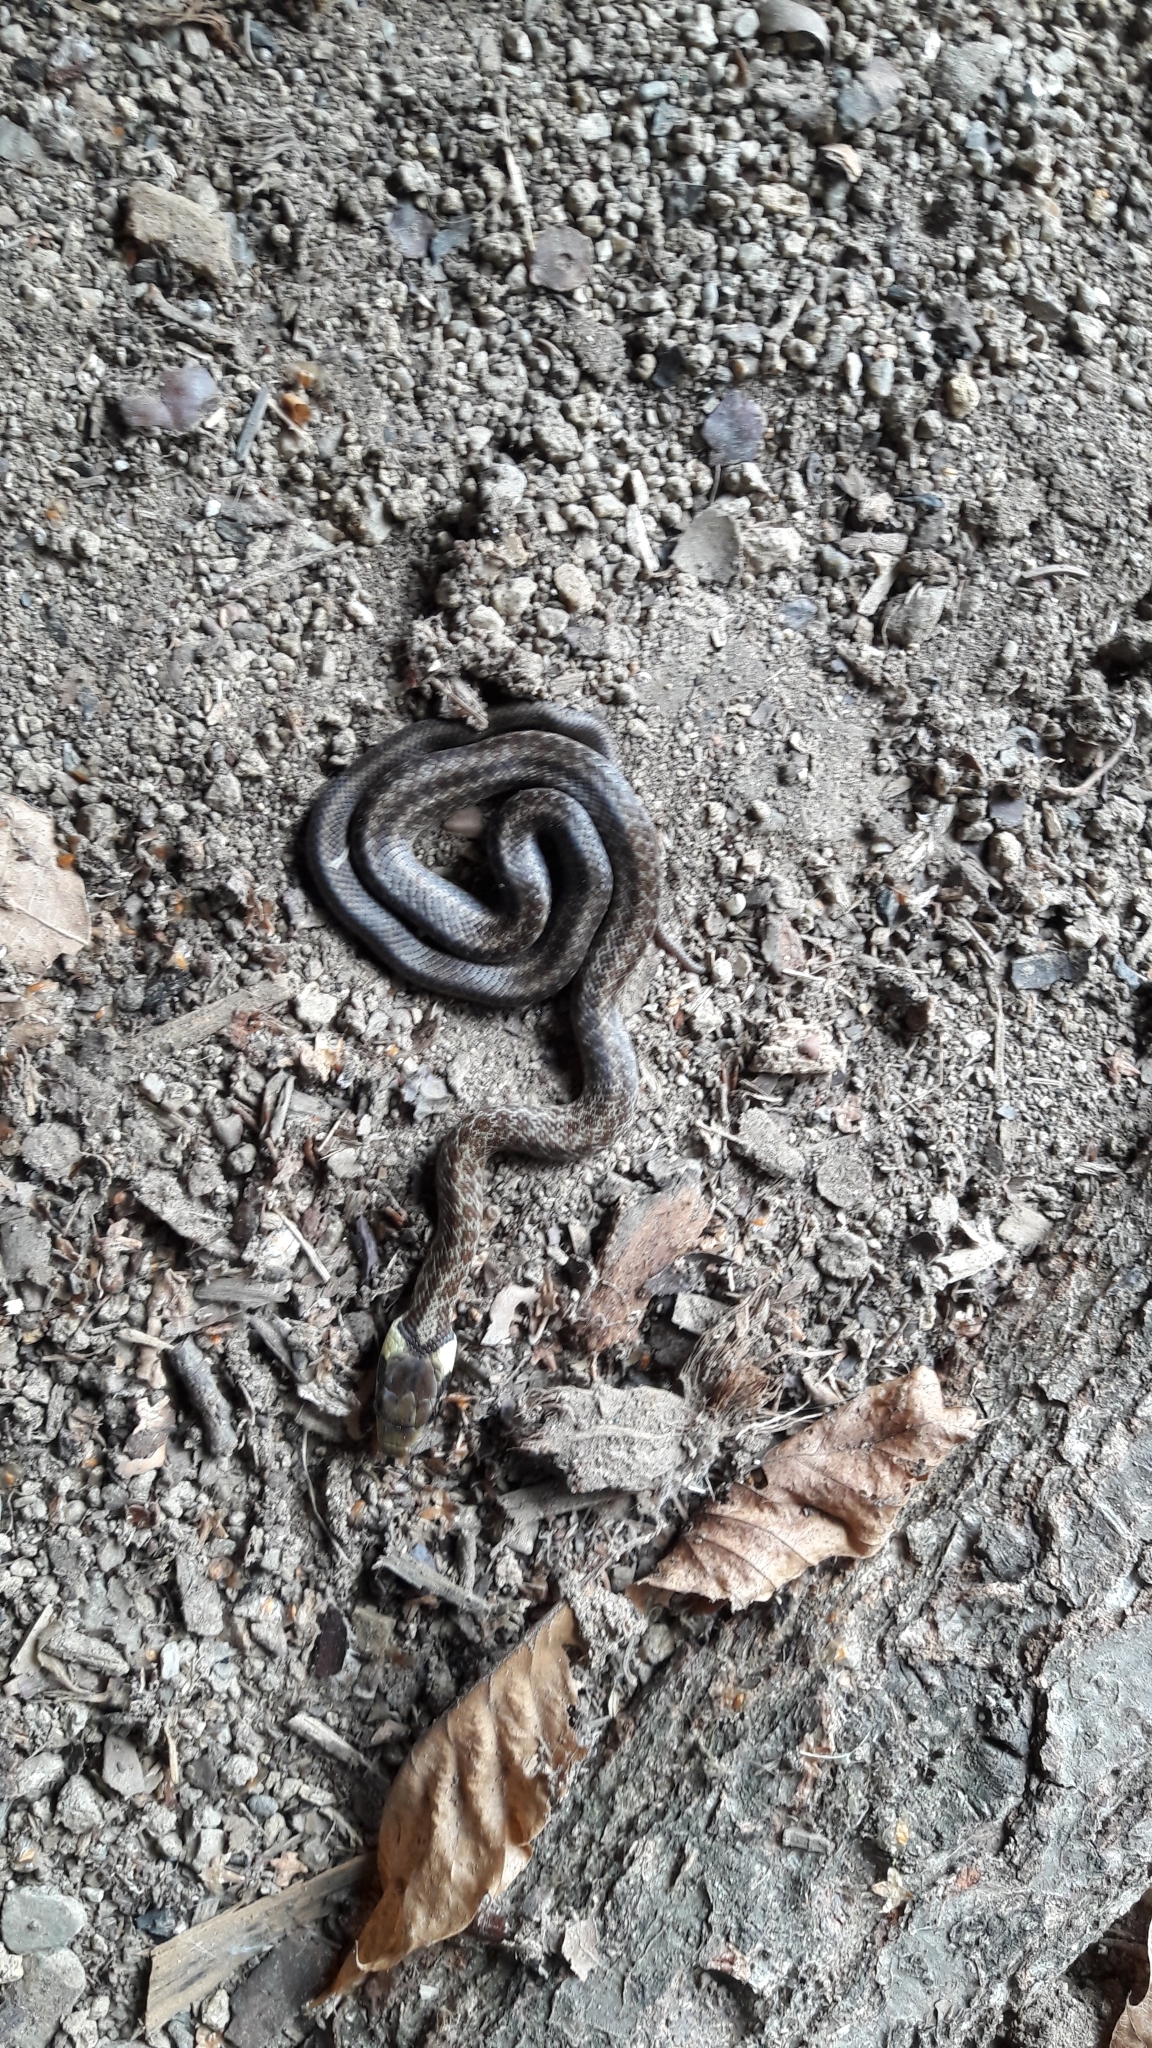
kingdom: Animalia
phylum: Chordata
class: Squamata
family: Colubridae
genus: Zamenis
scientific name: Zamenis longissimus
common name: Aesculapean snake
